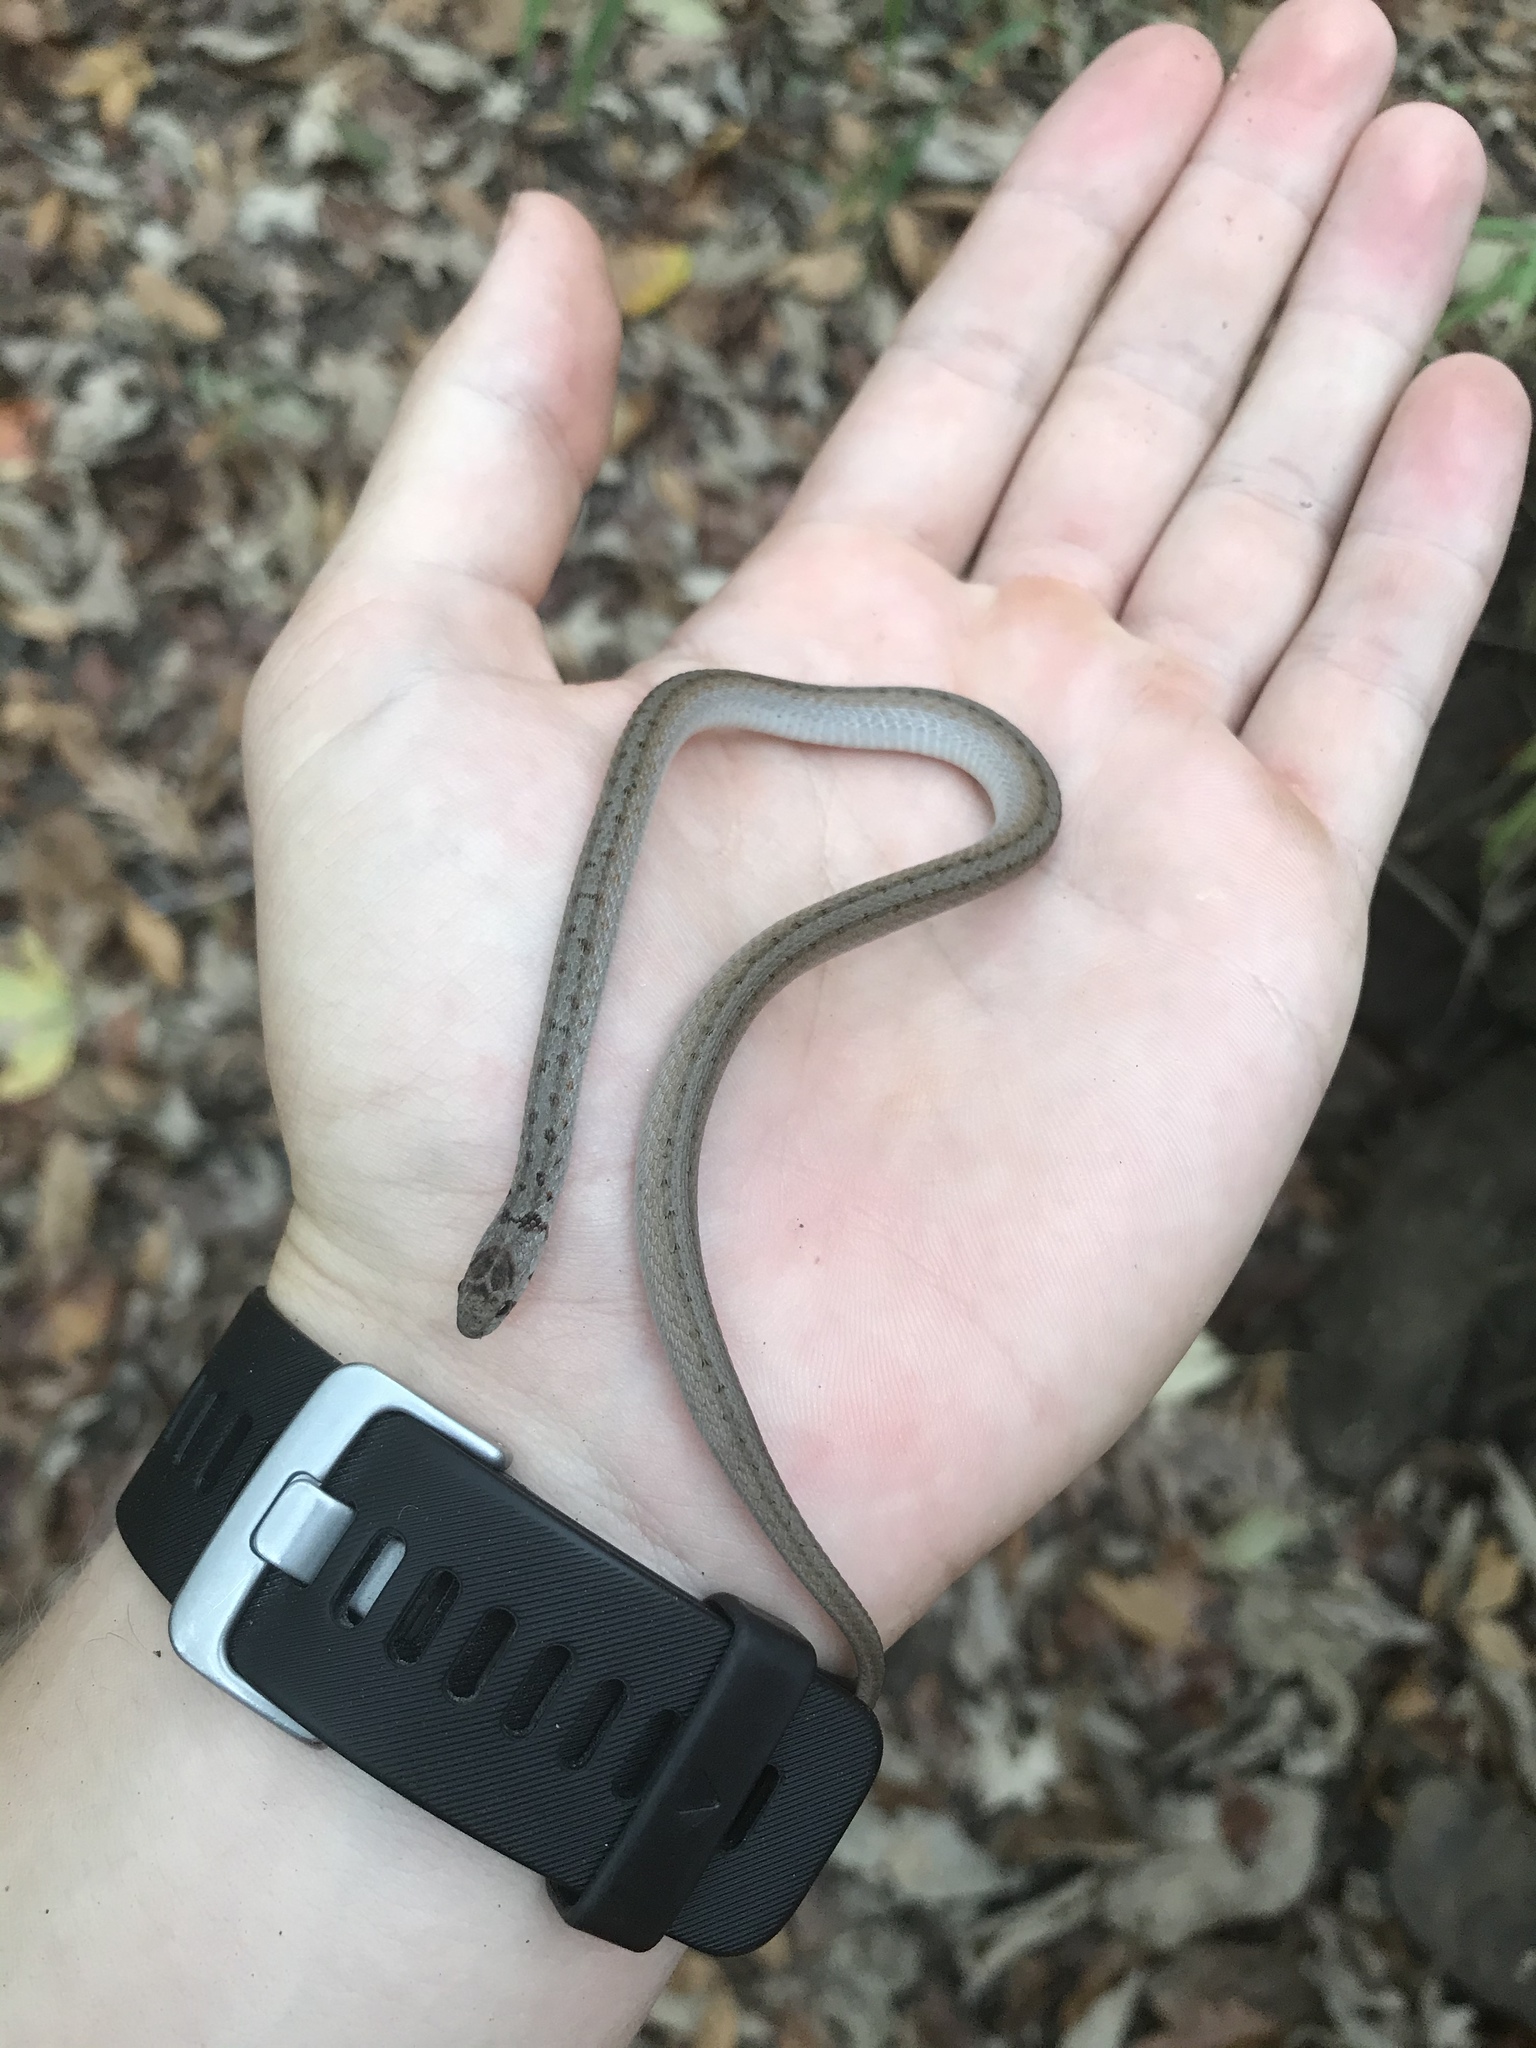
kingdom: Animalia
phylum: Chordata
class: Squamata
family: Colubridae
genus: Storeria
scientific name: Storeria dekayi
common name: (dekay’s) brown snake
